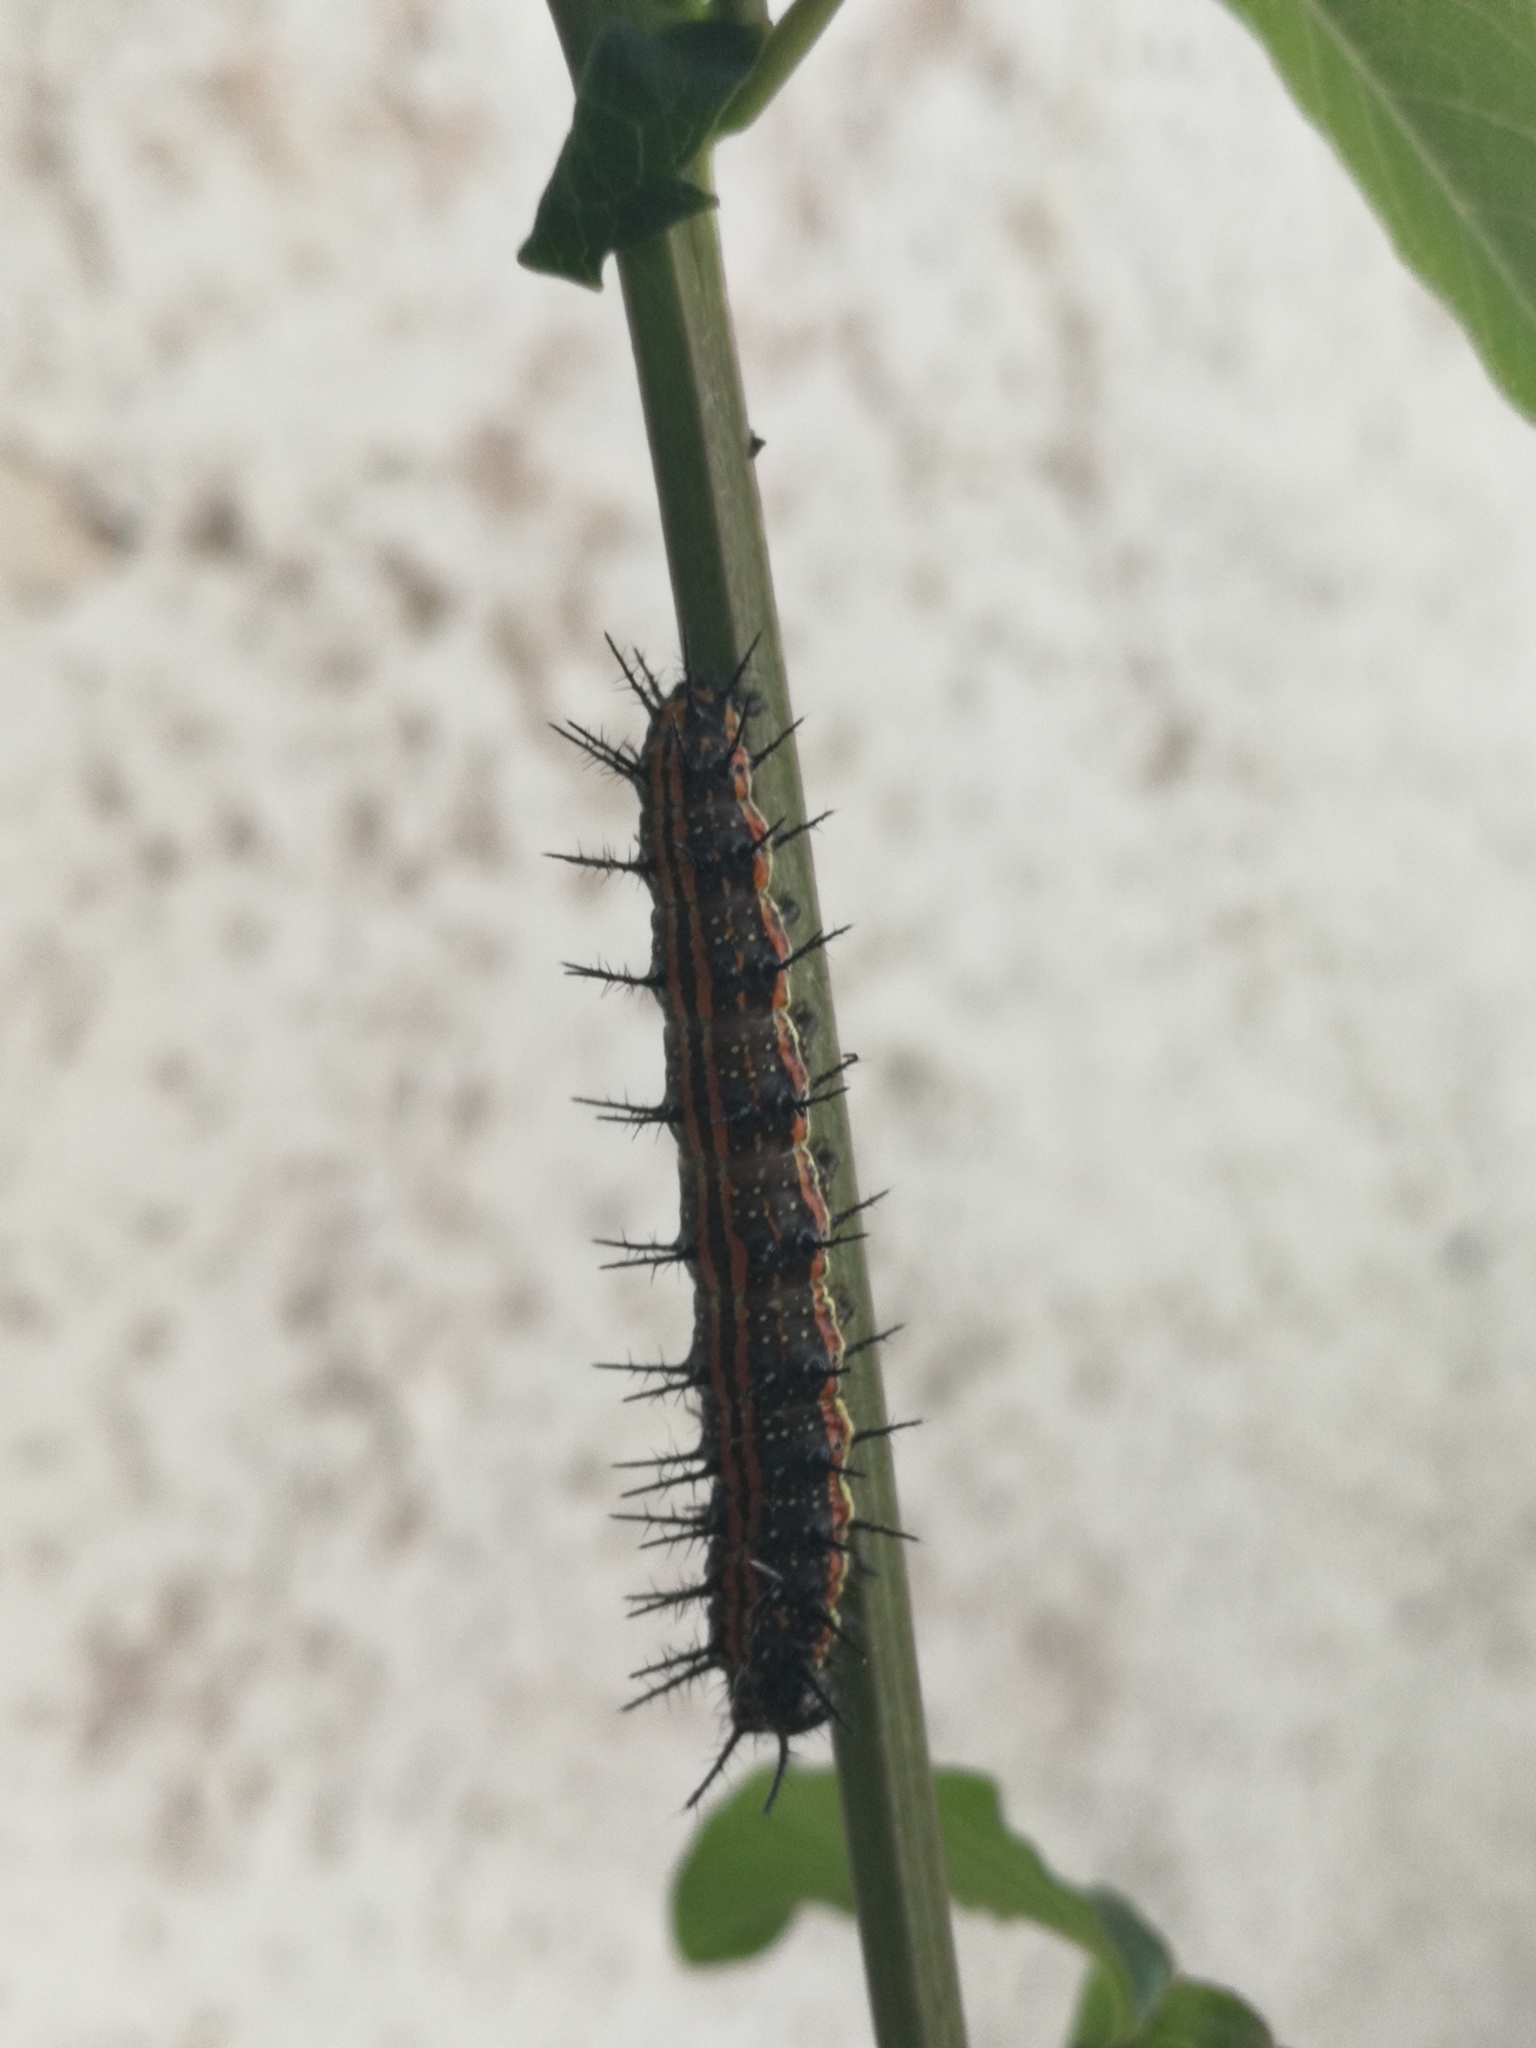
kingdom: Animalia
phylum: Arthropoda
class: Insecta
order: Lepidoptera
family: Nymphalidae
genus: Dione
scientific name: Dione vanillae
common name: Gulf fritillary
